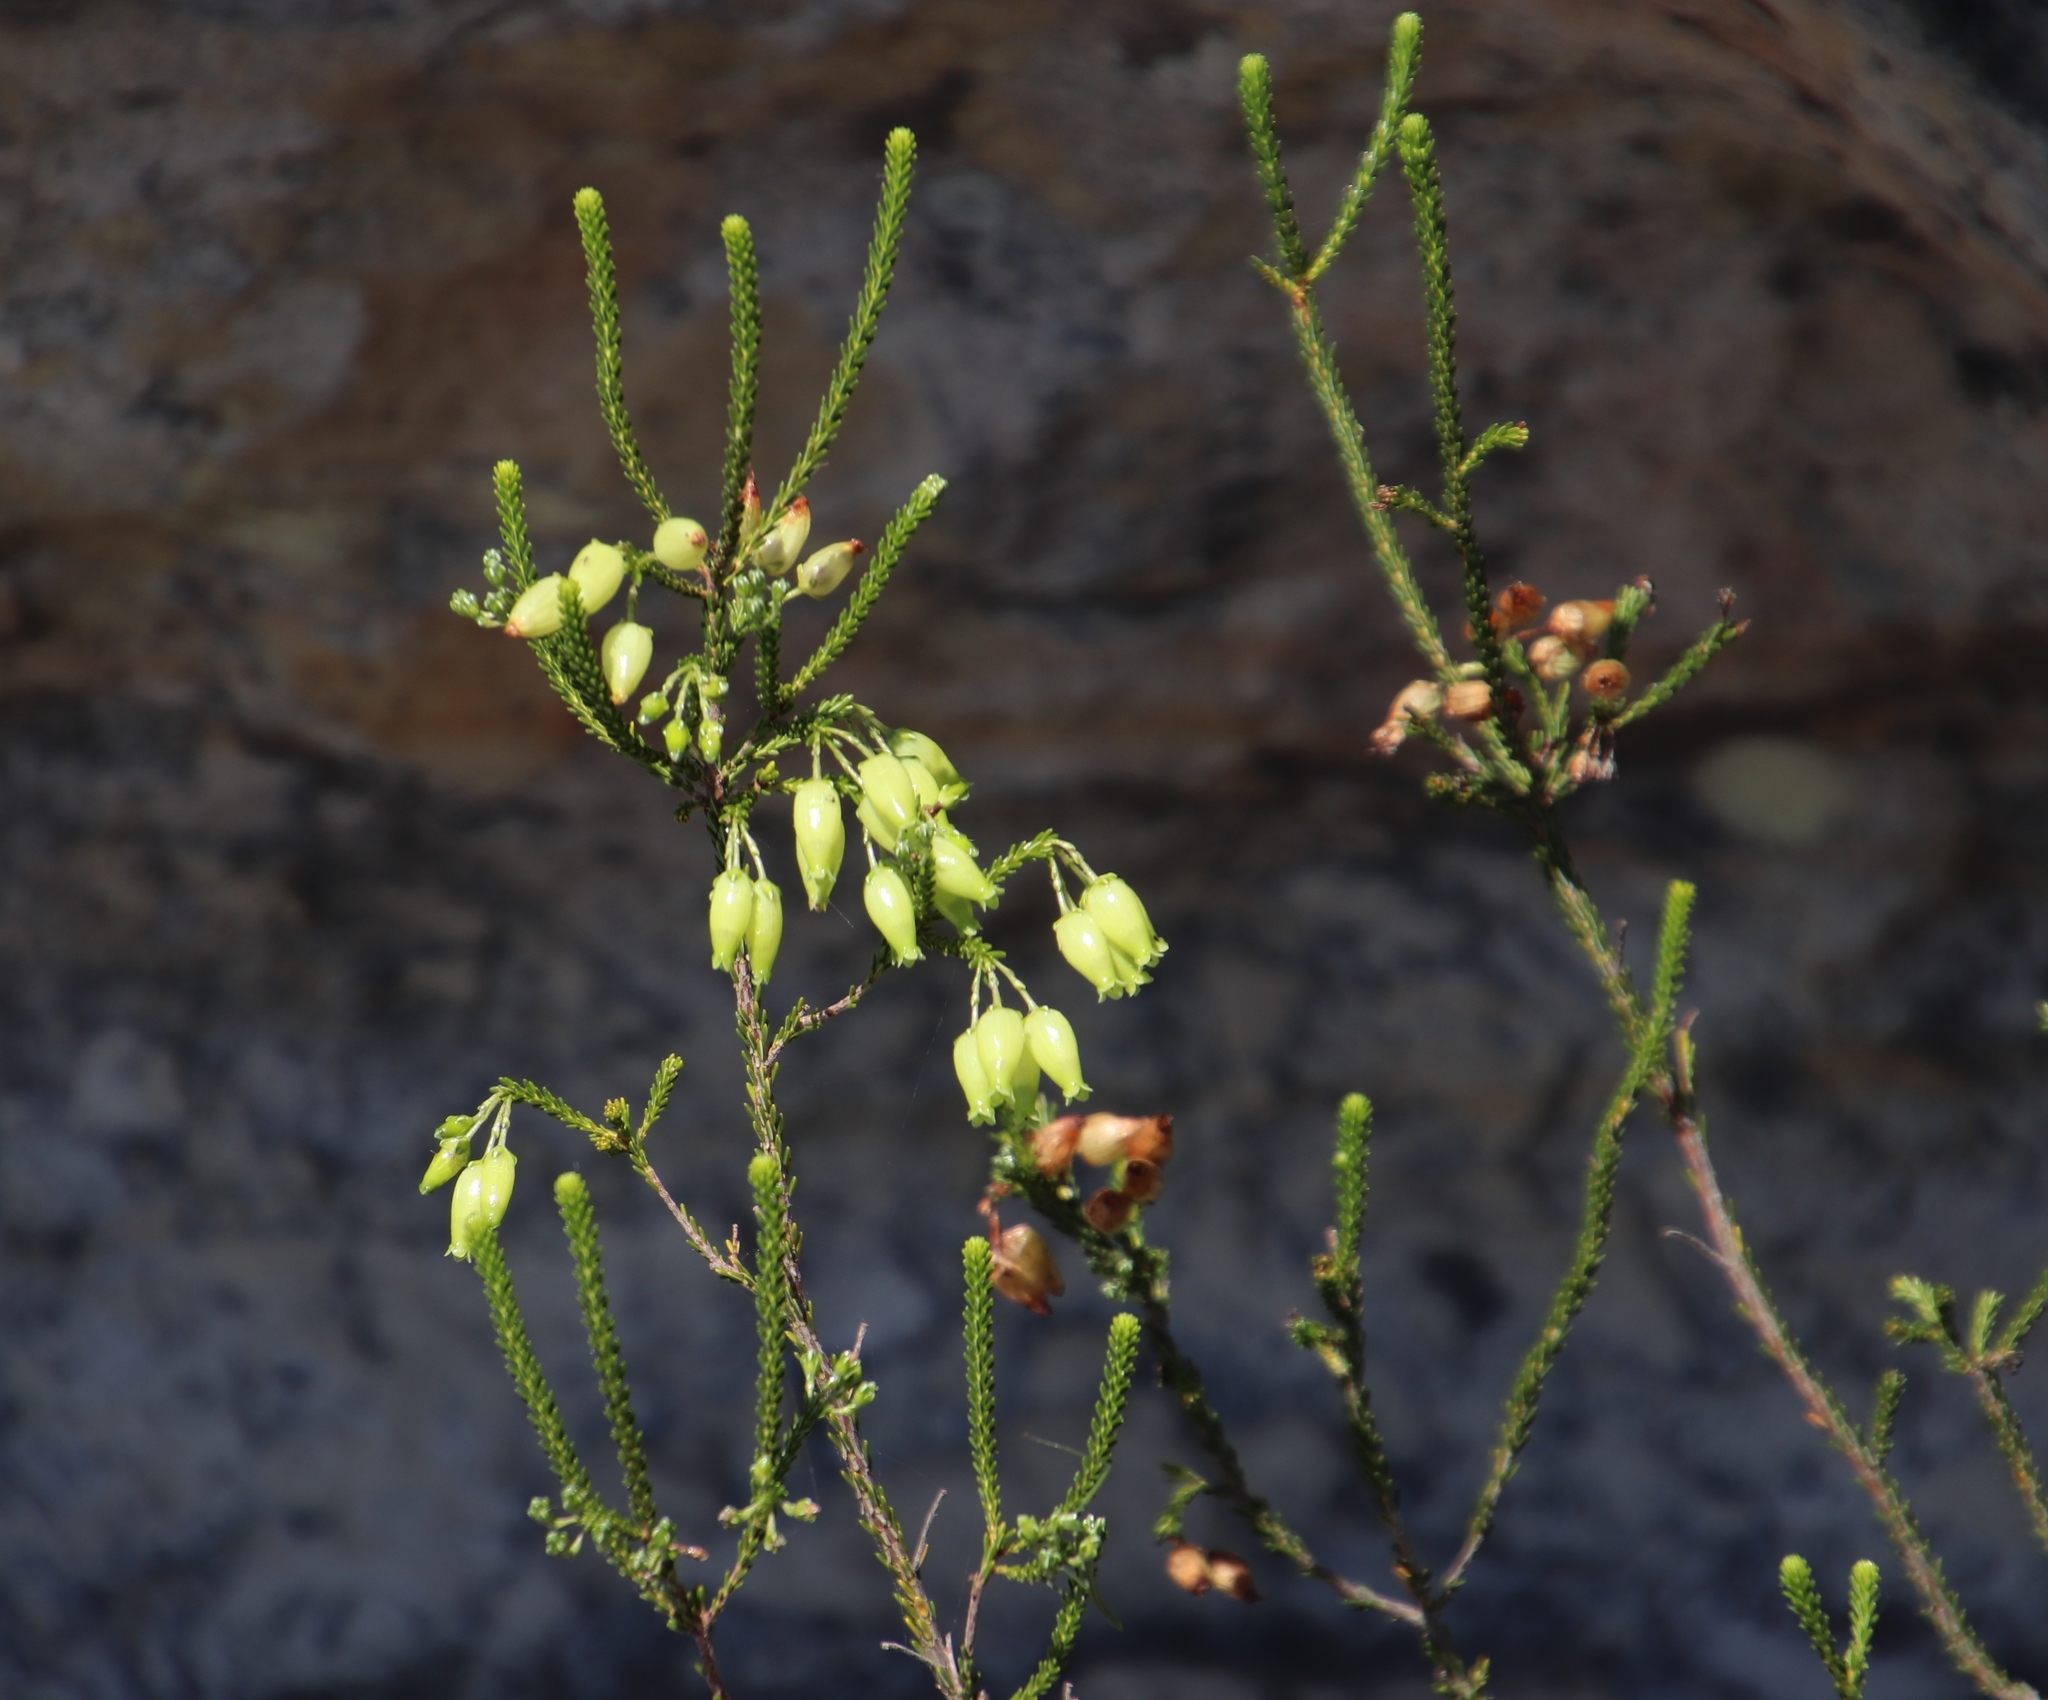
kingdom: Plantae
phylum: Tracheophyta
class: Magnoliopsida
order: Ericales
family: Ericaceae
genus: Erica
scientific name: Erica urna-viridis
